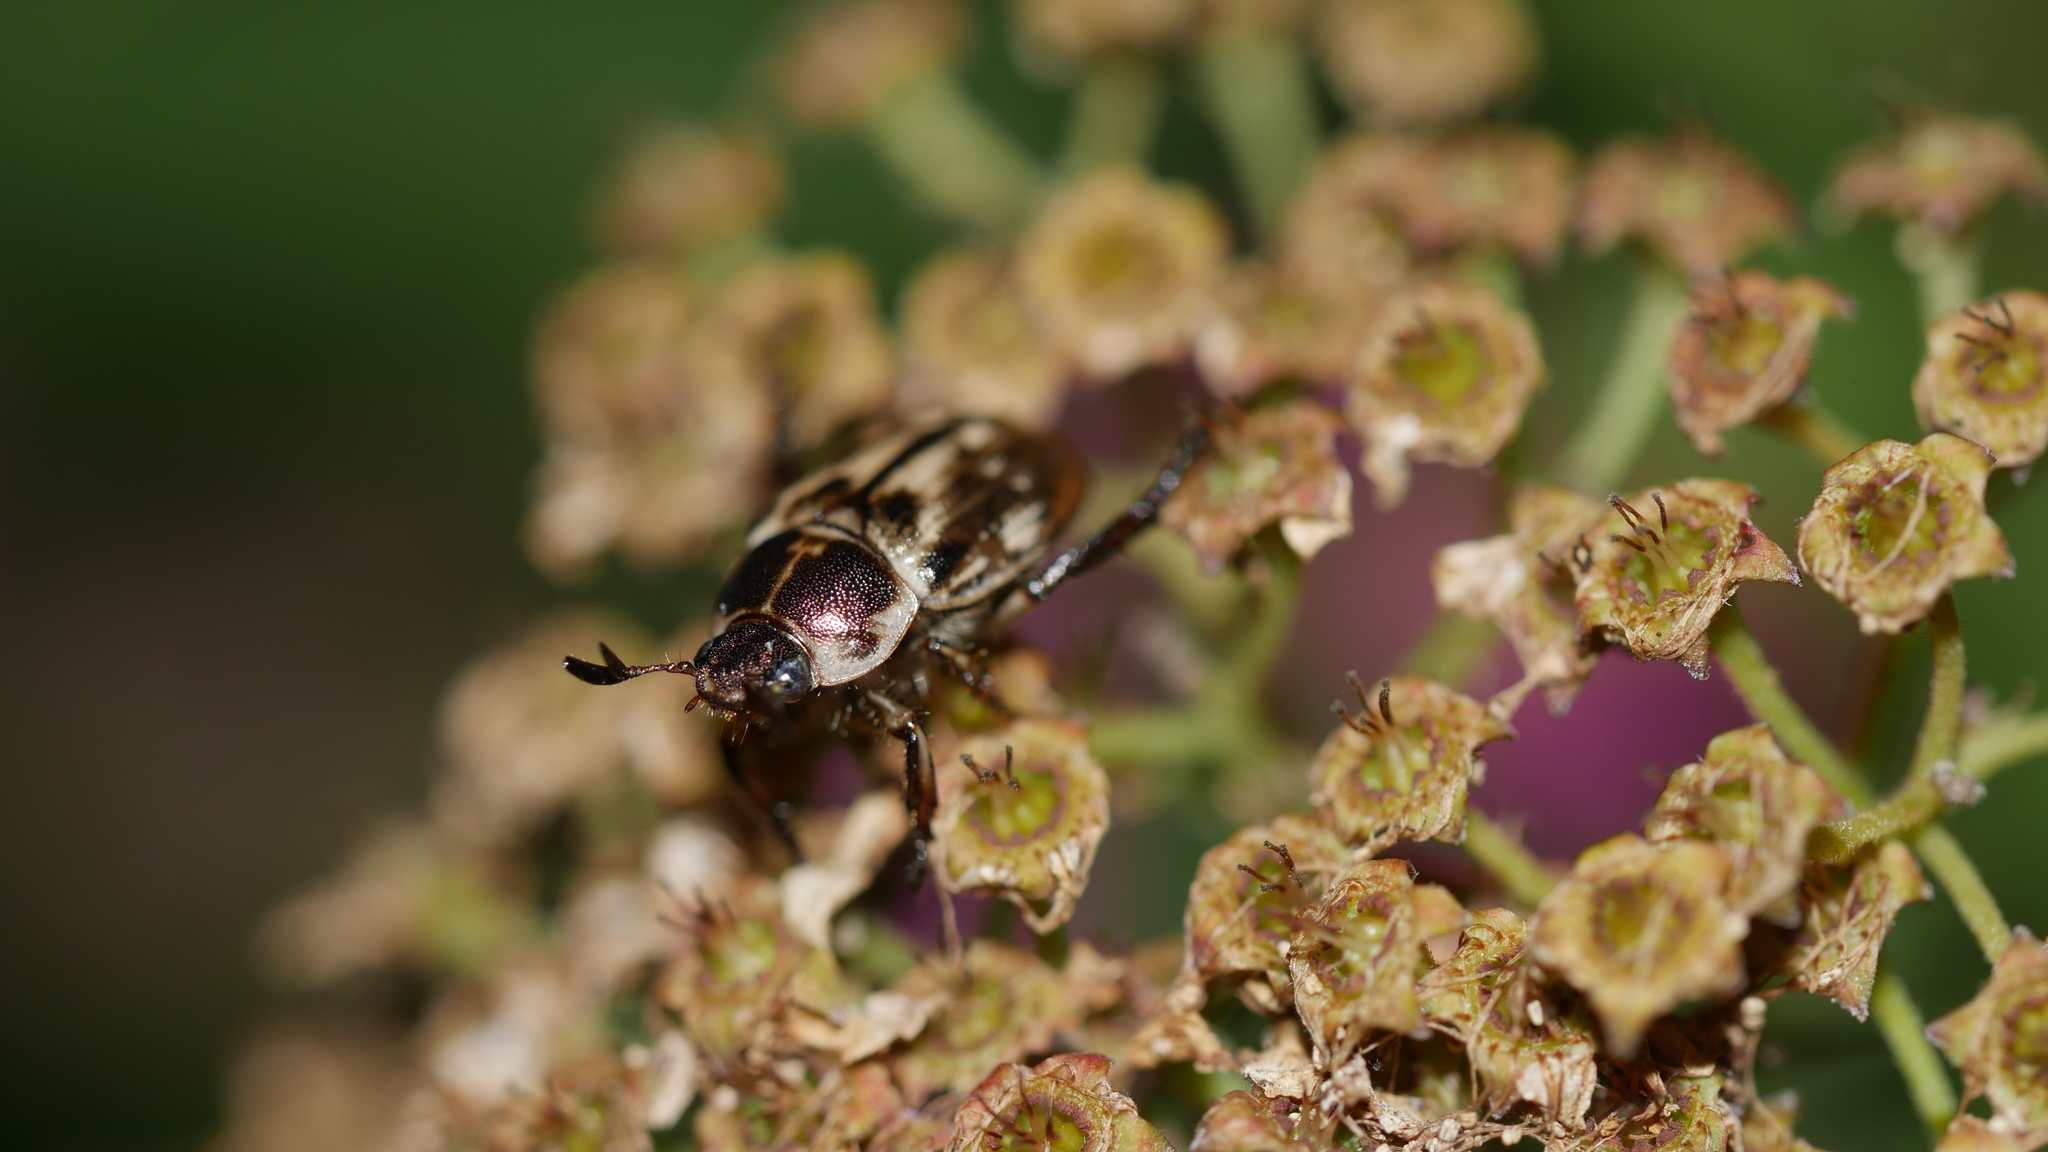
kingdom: Animalia
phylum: Arthropoda
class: Insecta
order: Coleoptera
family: Scarabaeidae
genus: Exomala
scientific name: Exomala orientalis
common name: Oriental beetle
